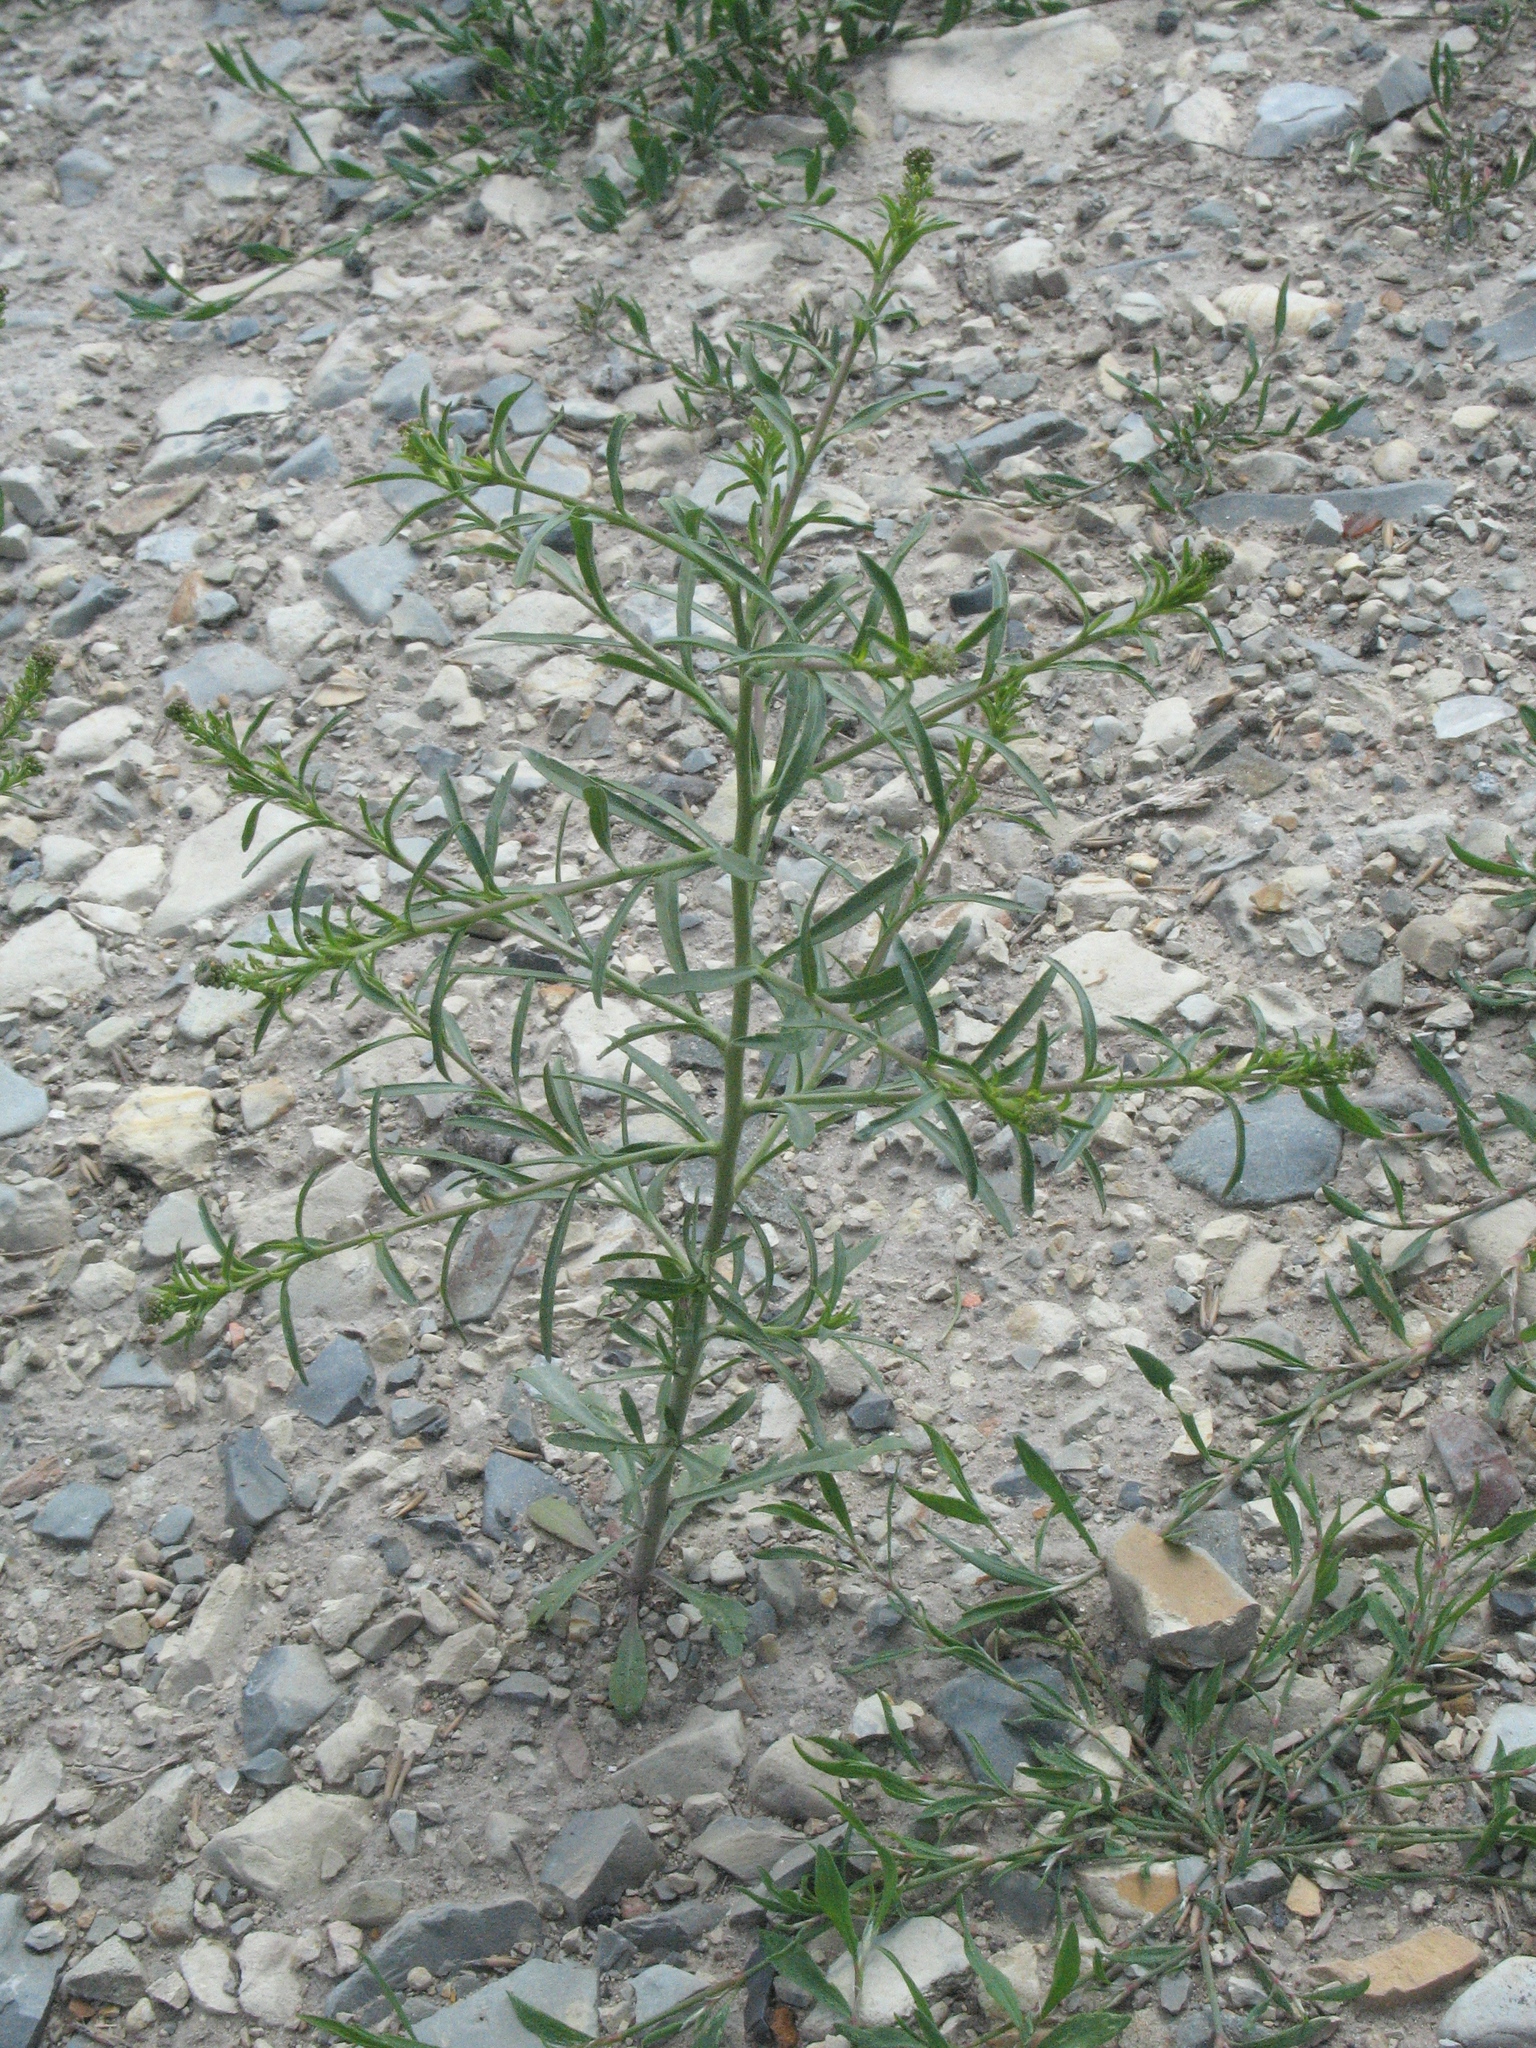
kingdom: Plantae
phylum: Tracheophyta
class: Magnoliopsida
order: Brassicales
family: Brassicaceae
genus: Lepidium
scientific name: Lepidium densiflorum
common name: Miner's pepperwort
